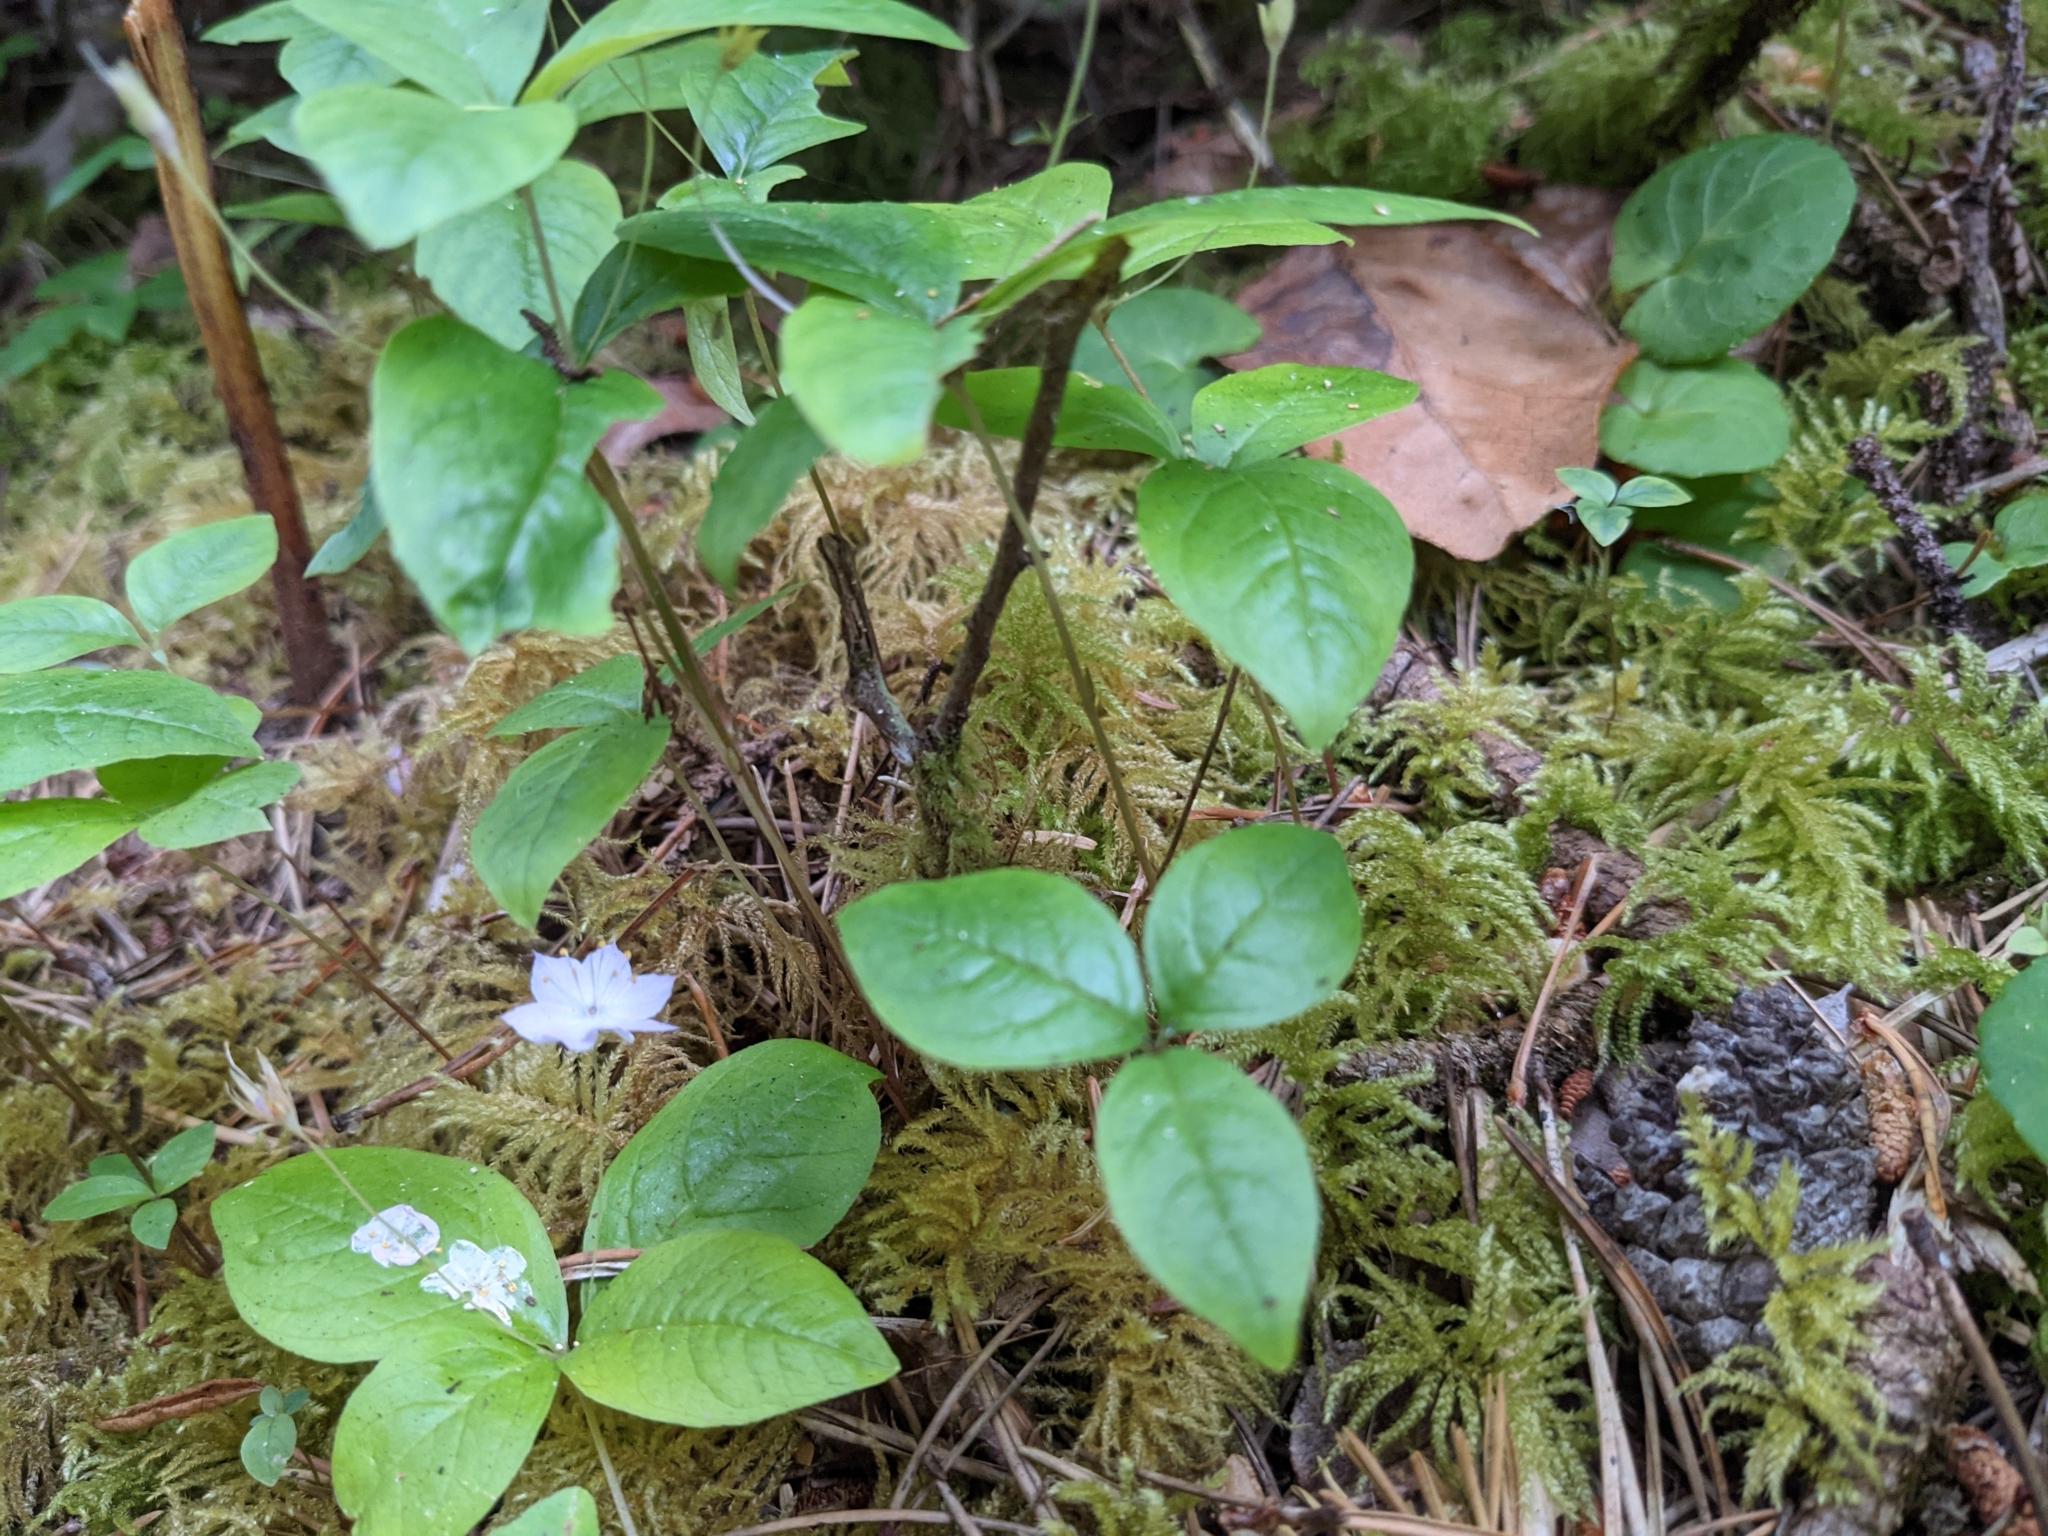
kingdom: Plantae
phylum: Tracheophyta
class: Magnoliopsida
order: Ericales
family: Primulaceae
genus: Lysimachia
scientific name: Lysimachia latifolia
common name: Pacific starflower
